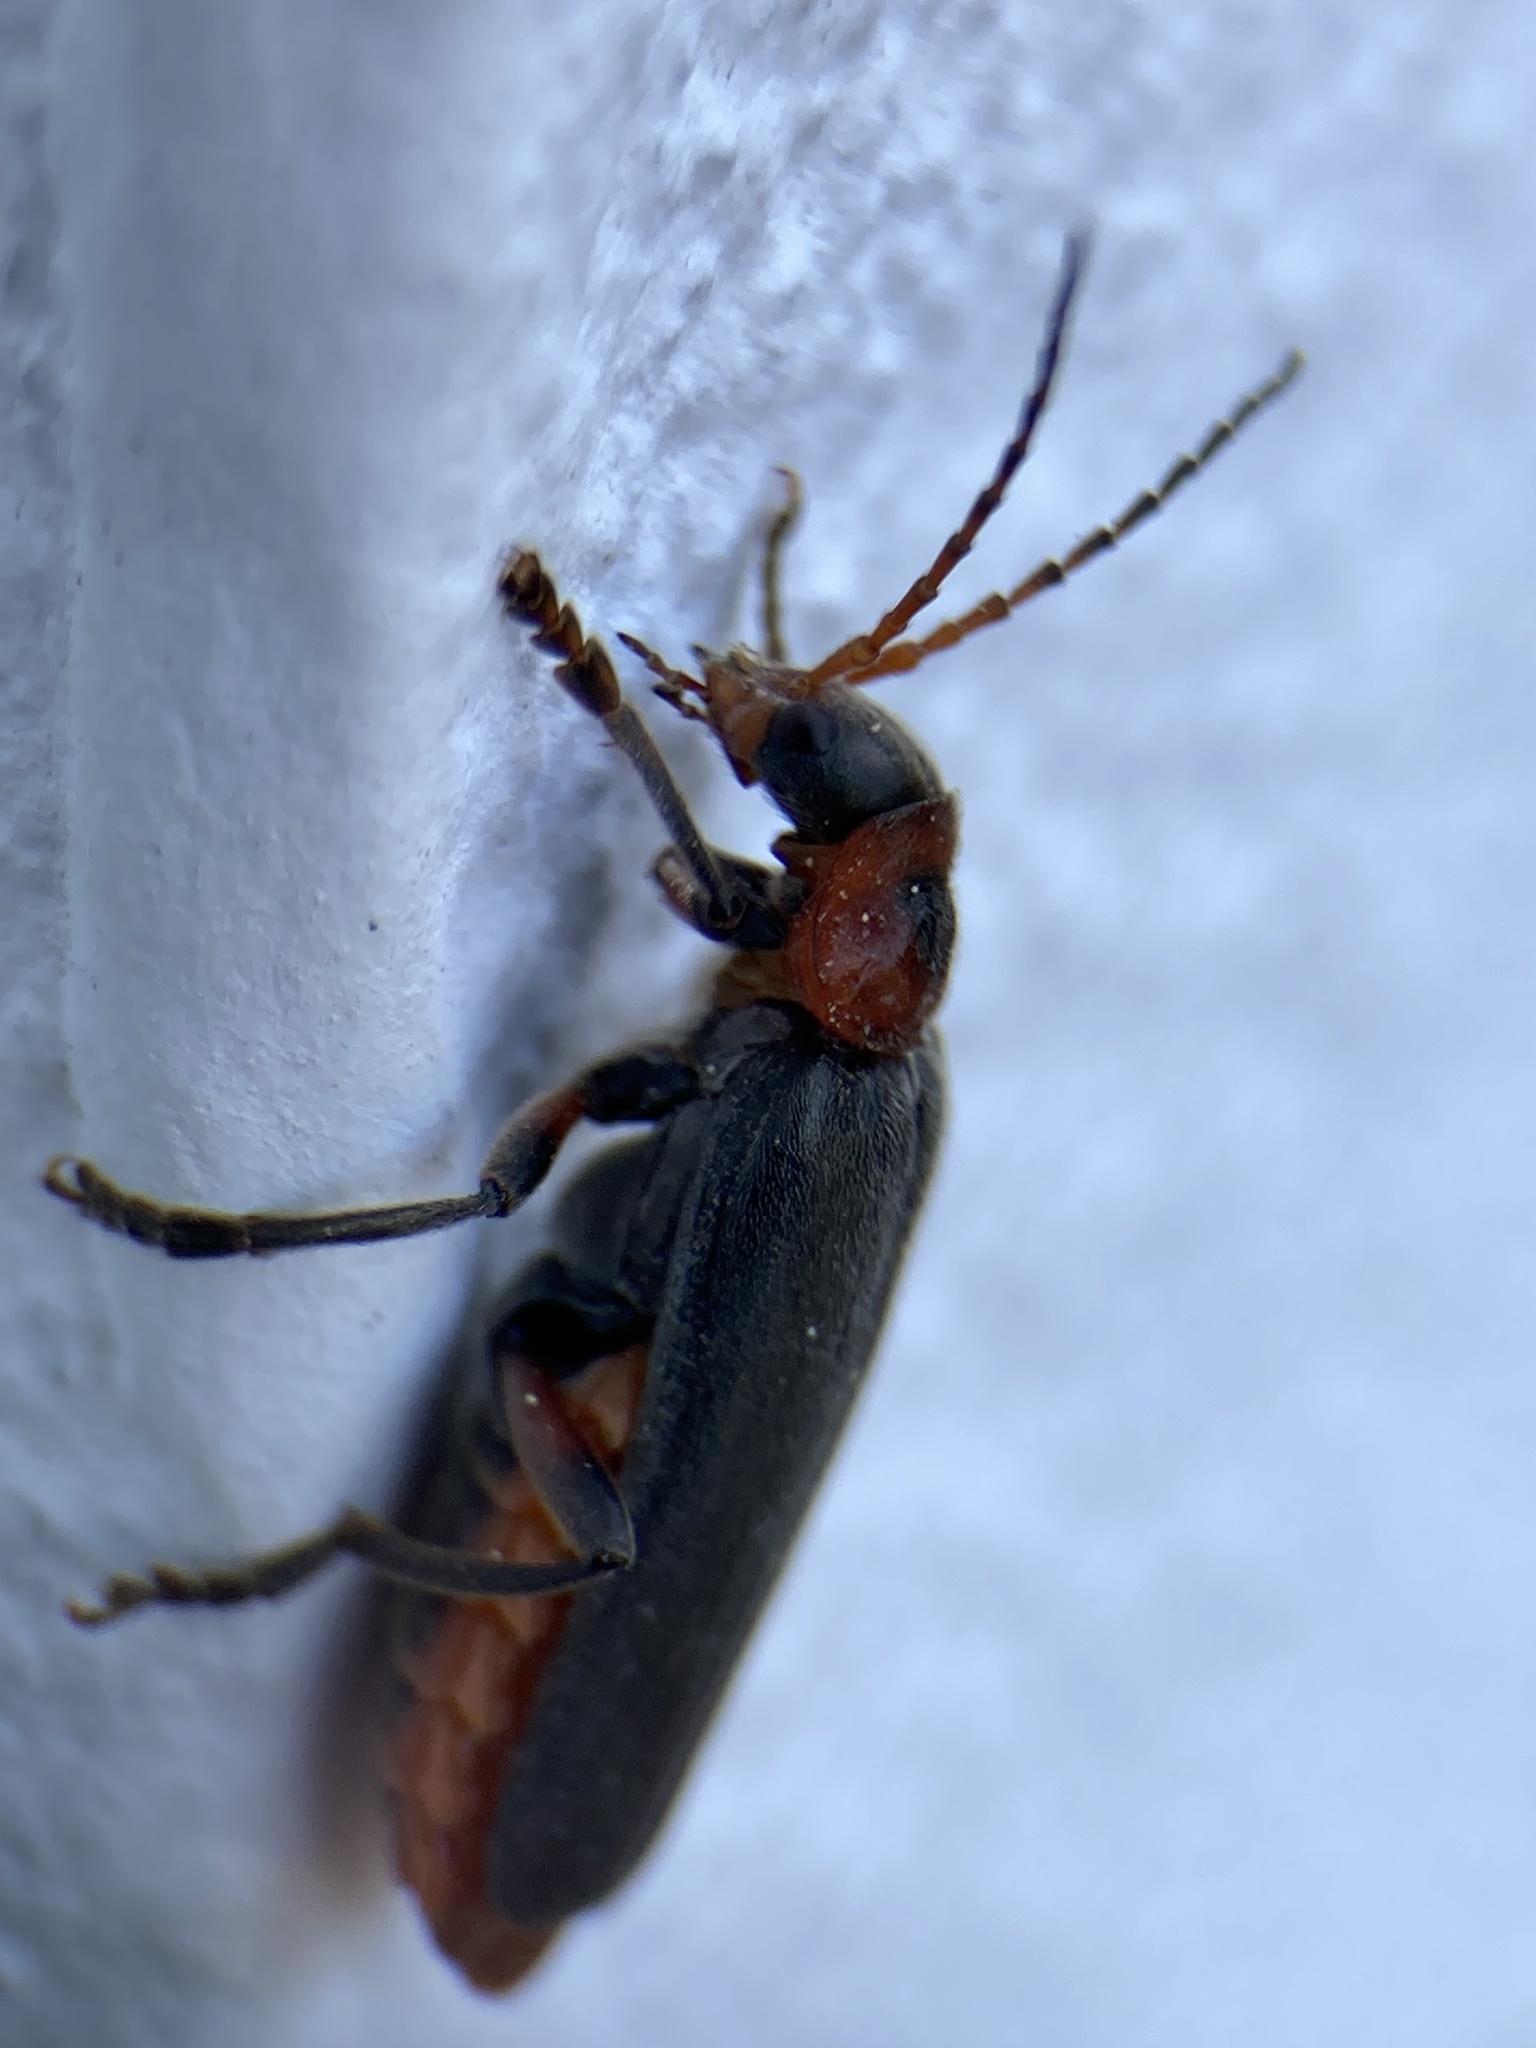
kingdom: Animalia
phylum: Arthropoda
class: Insecta
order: Coleoptera
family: Cantharidae
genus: Cantharis
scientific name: Cantharis rustica
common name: Soldier beetle
